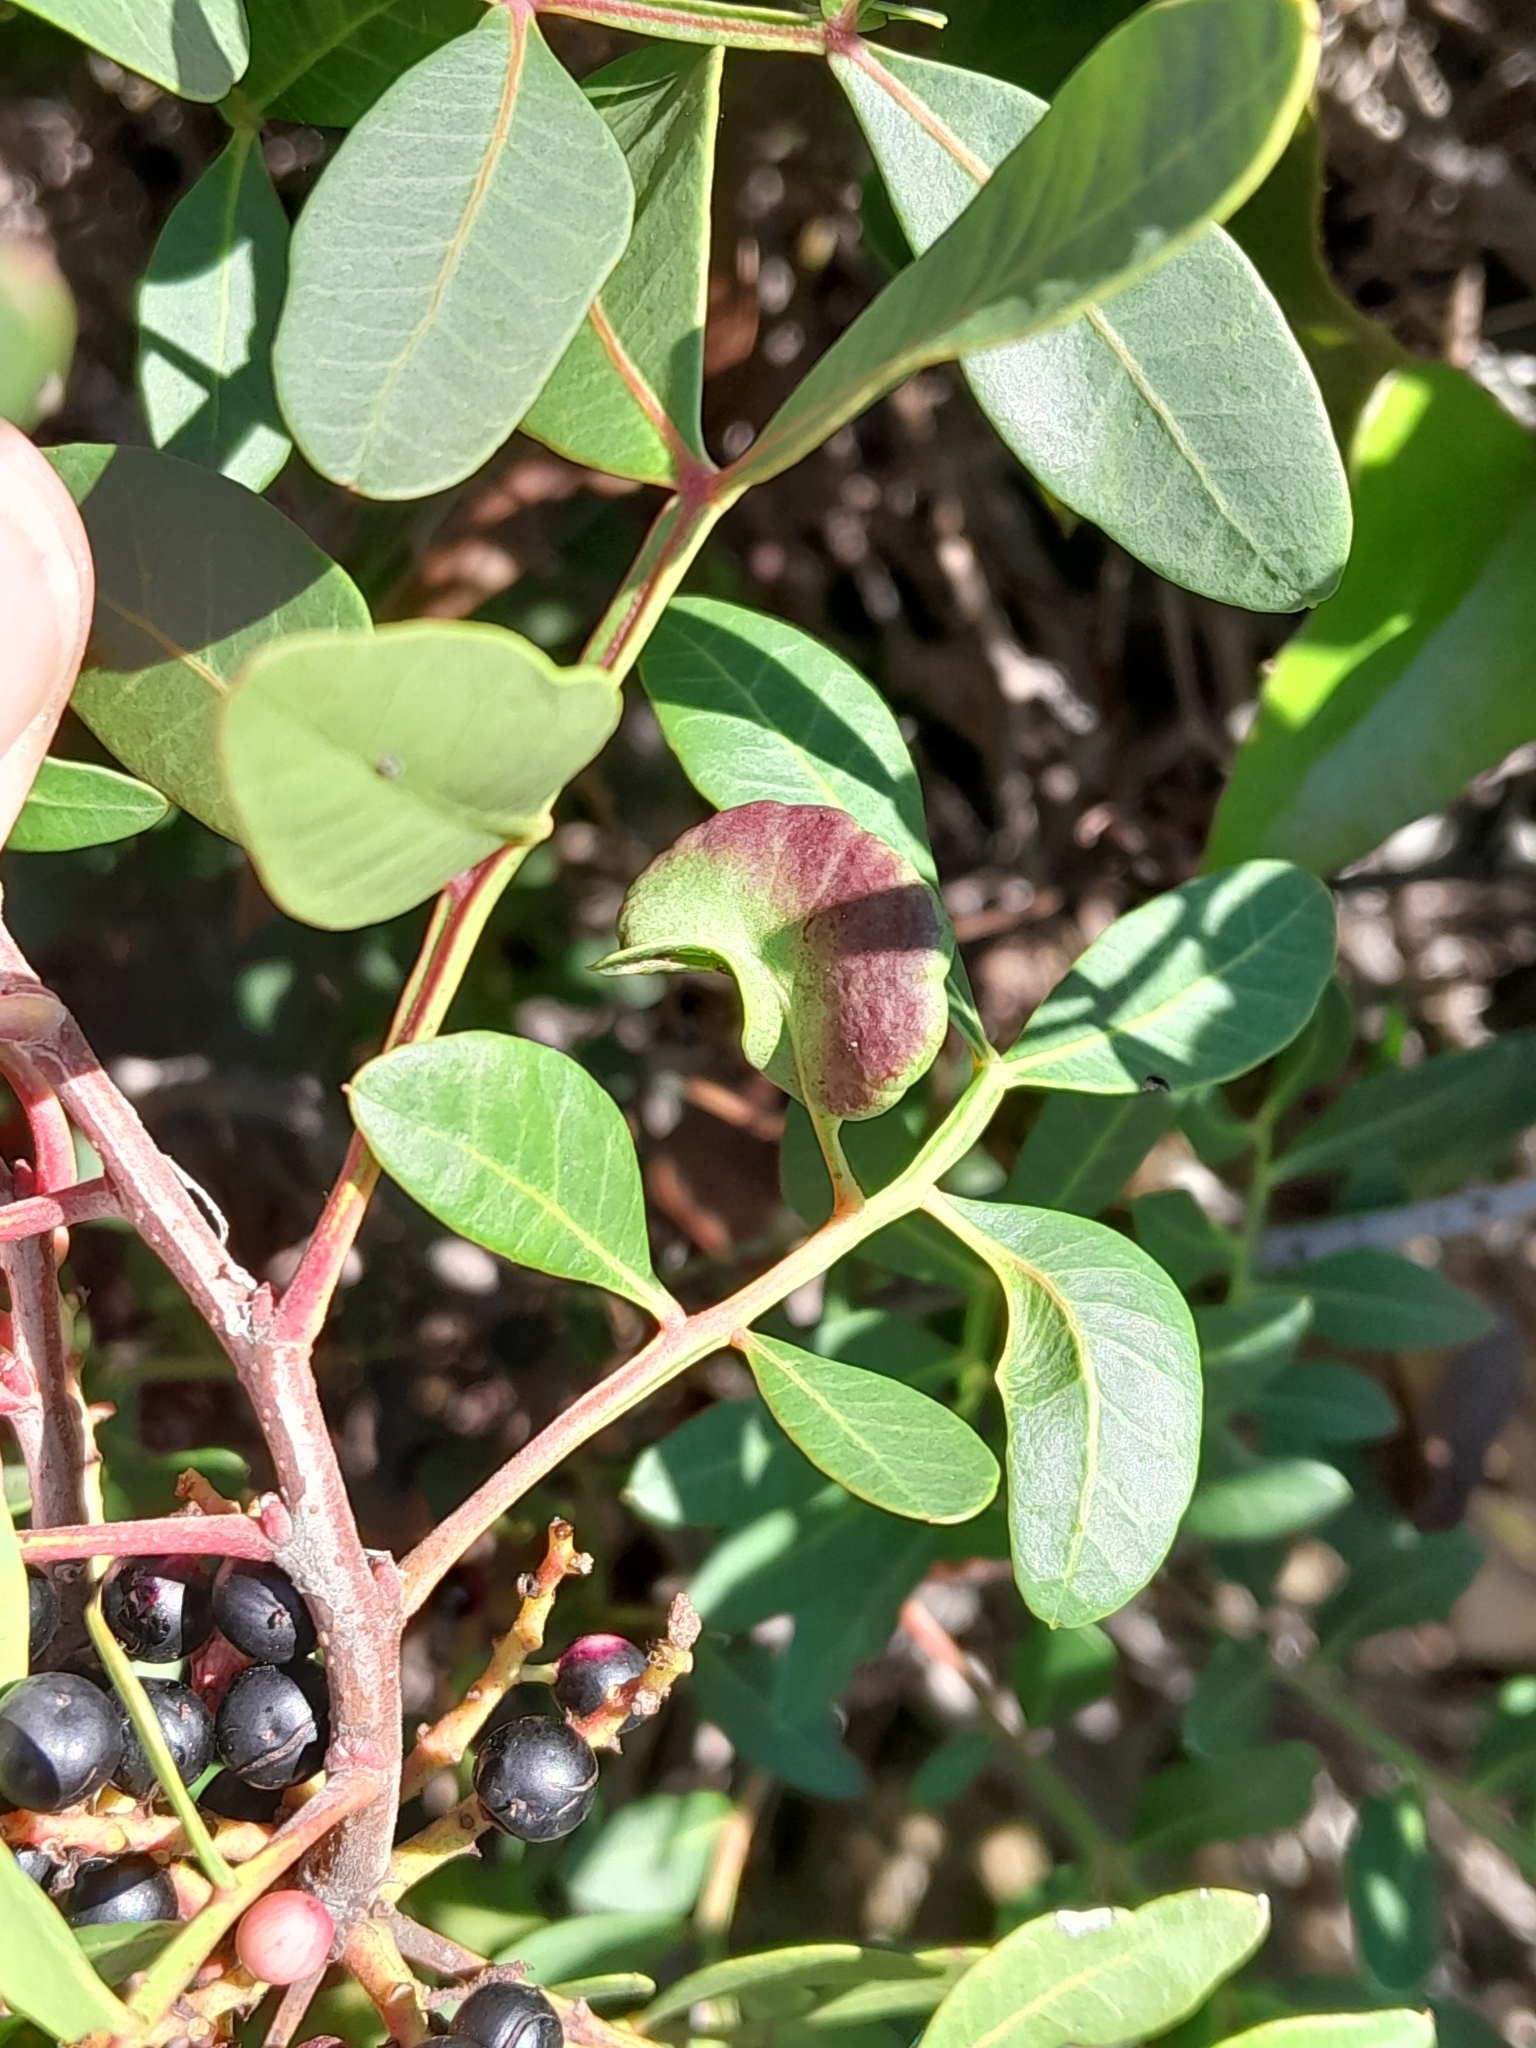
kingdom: Animalia
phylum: Arthropoda
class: Insecta
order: Hemiptera
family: Aphididae
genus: Aploneura
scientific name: Aploneura lentisci
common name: Mealy grass root aphid
